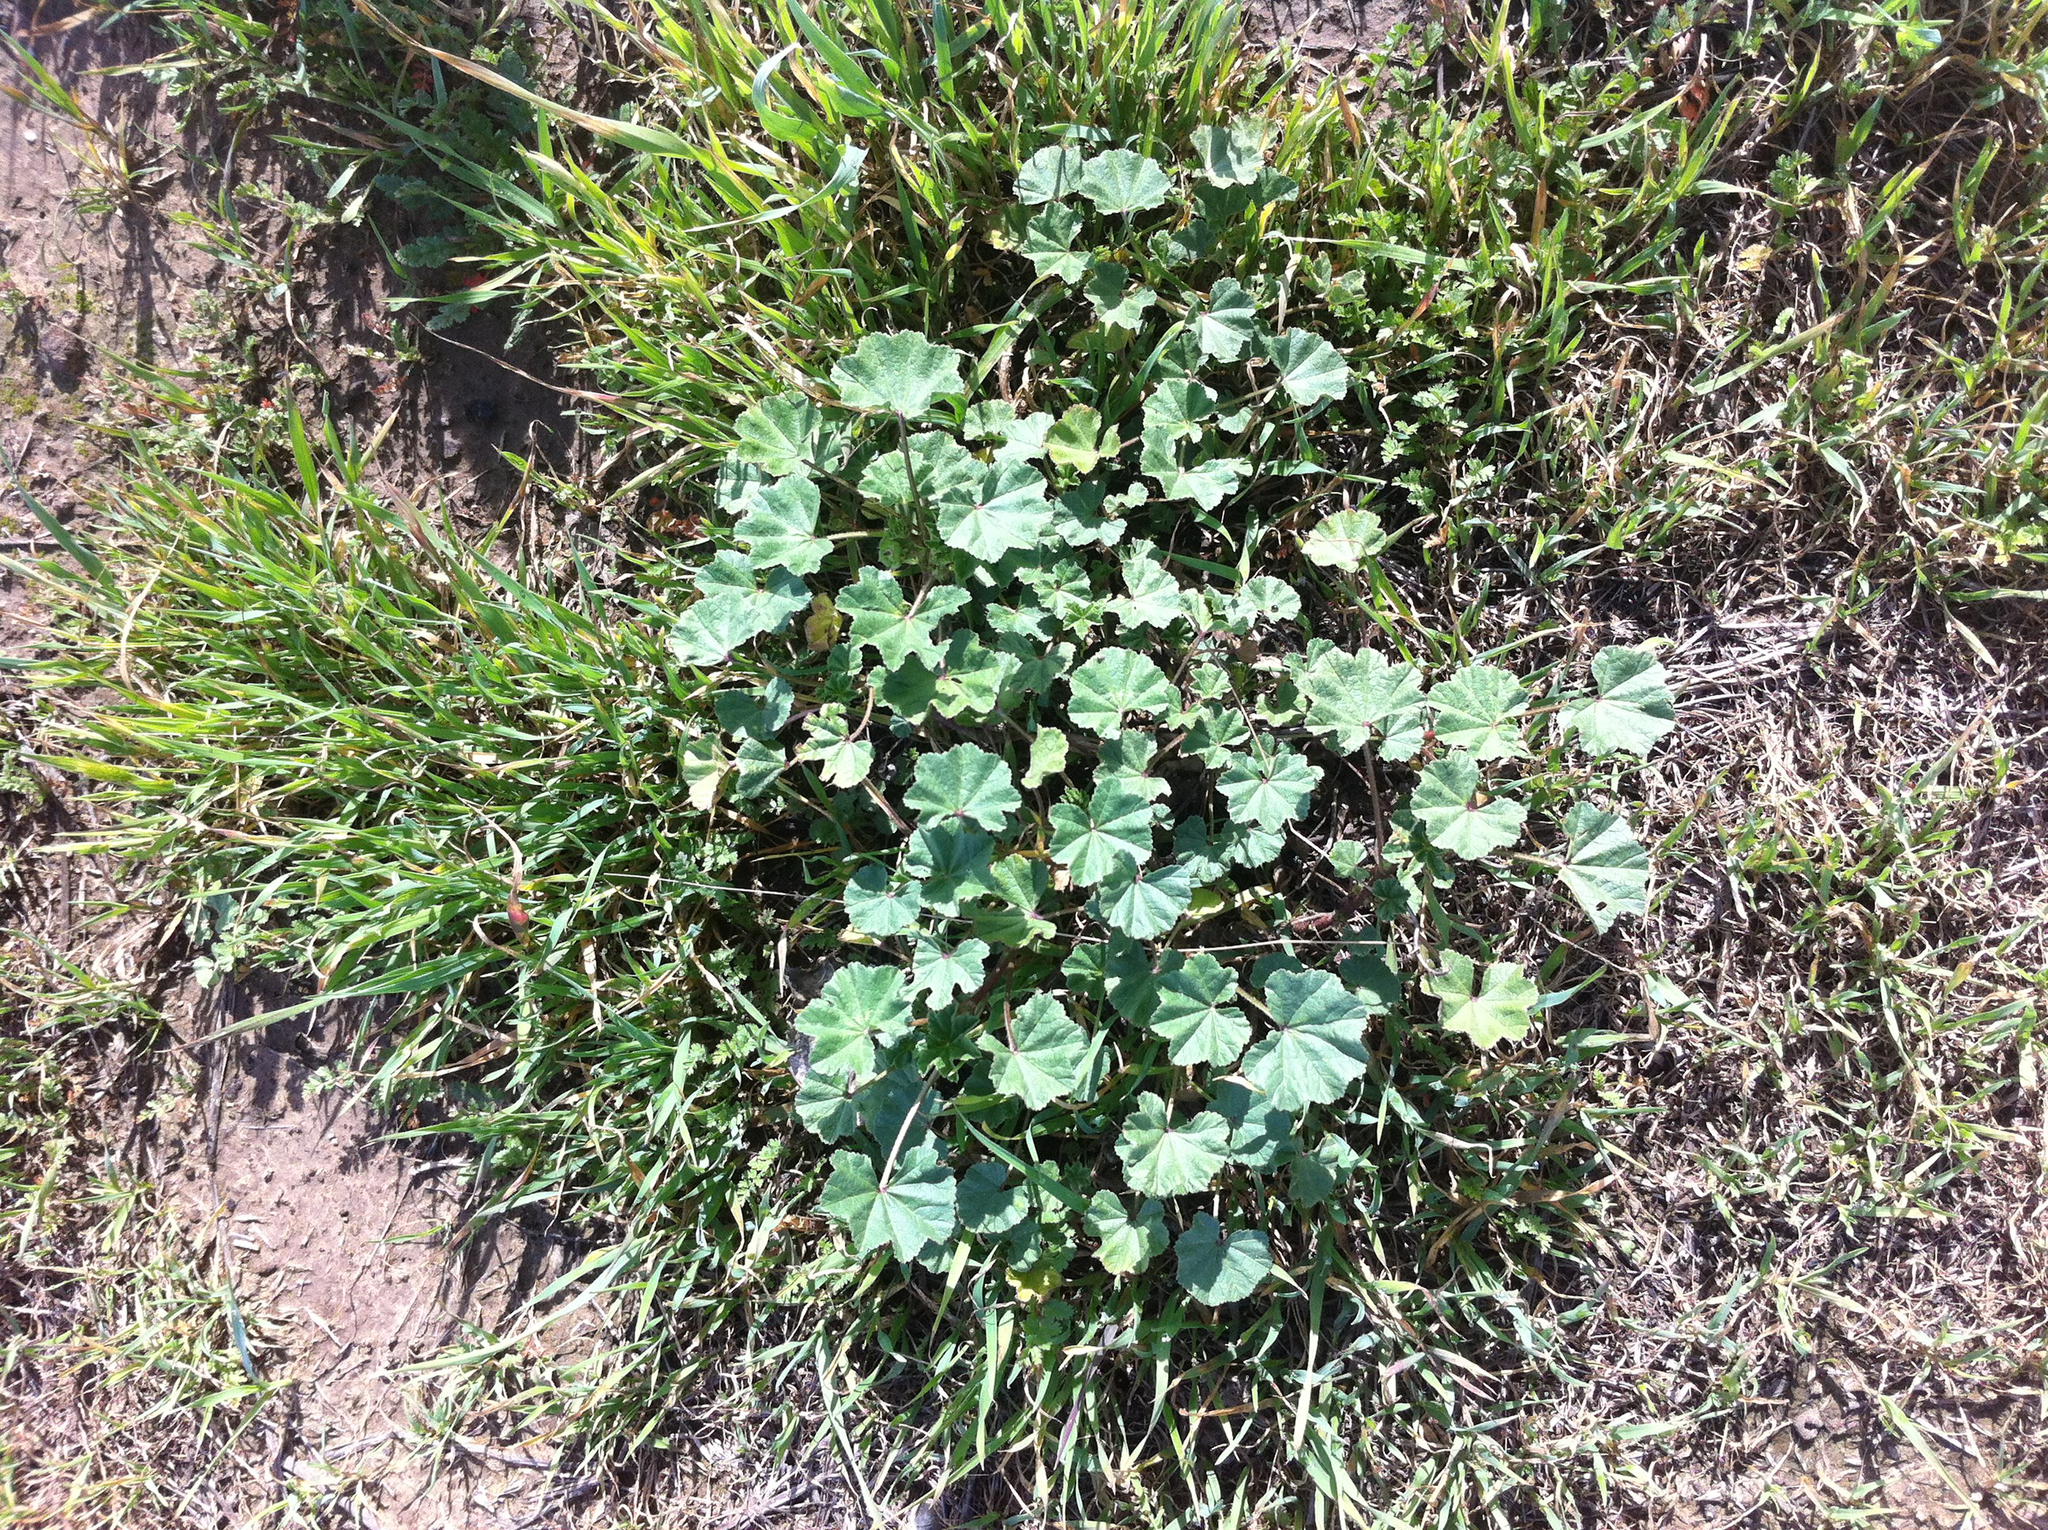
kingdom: Plantae
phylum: Tracheophyta
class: Magnoliopsida
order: Malvales
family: Malvaceae
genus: Malva
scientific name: Malva
